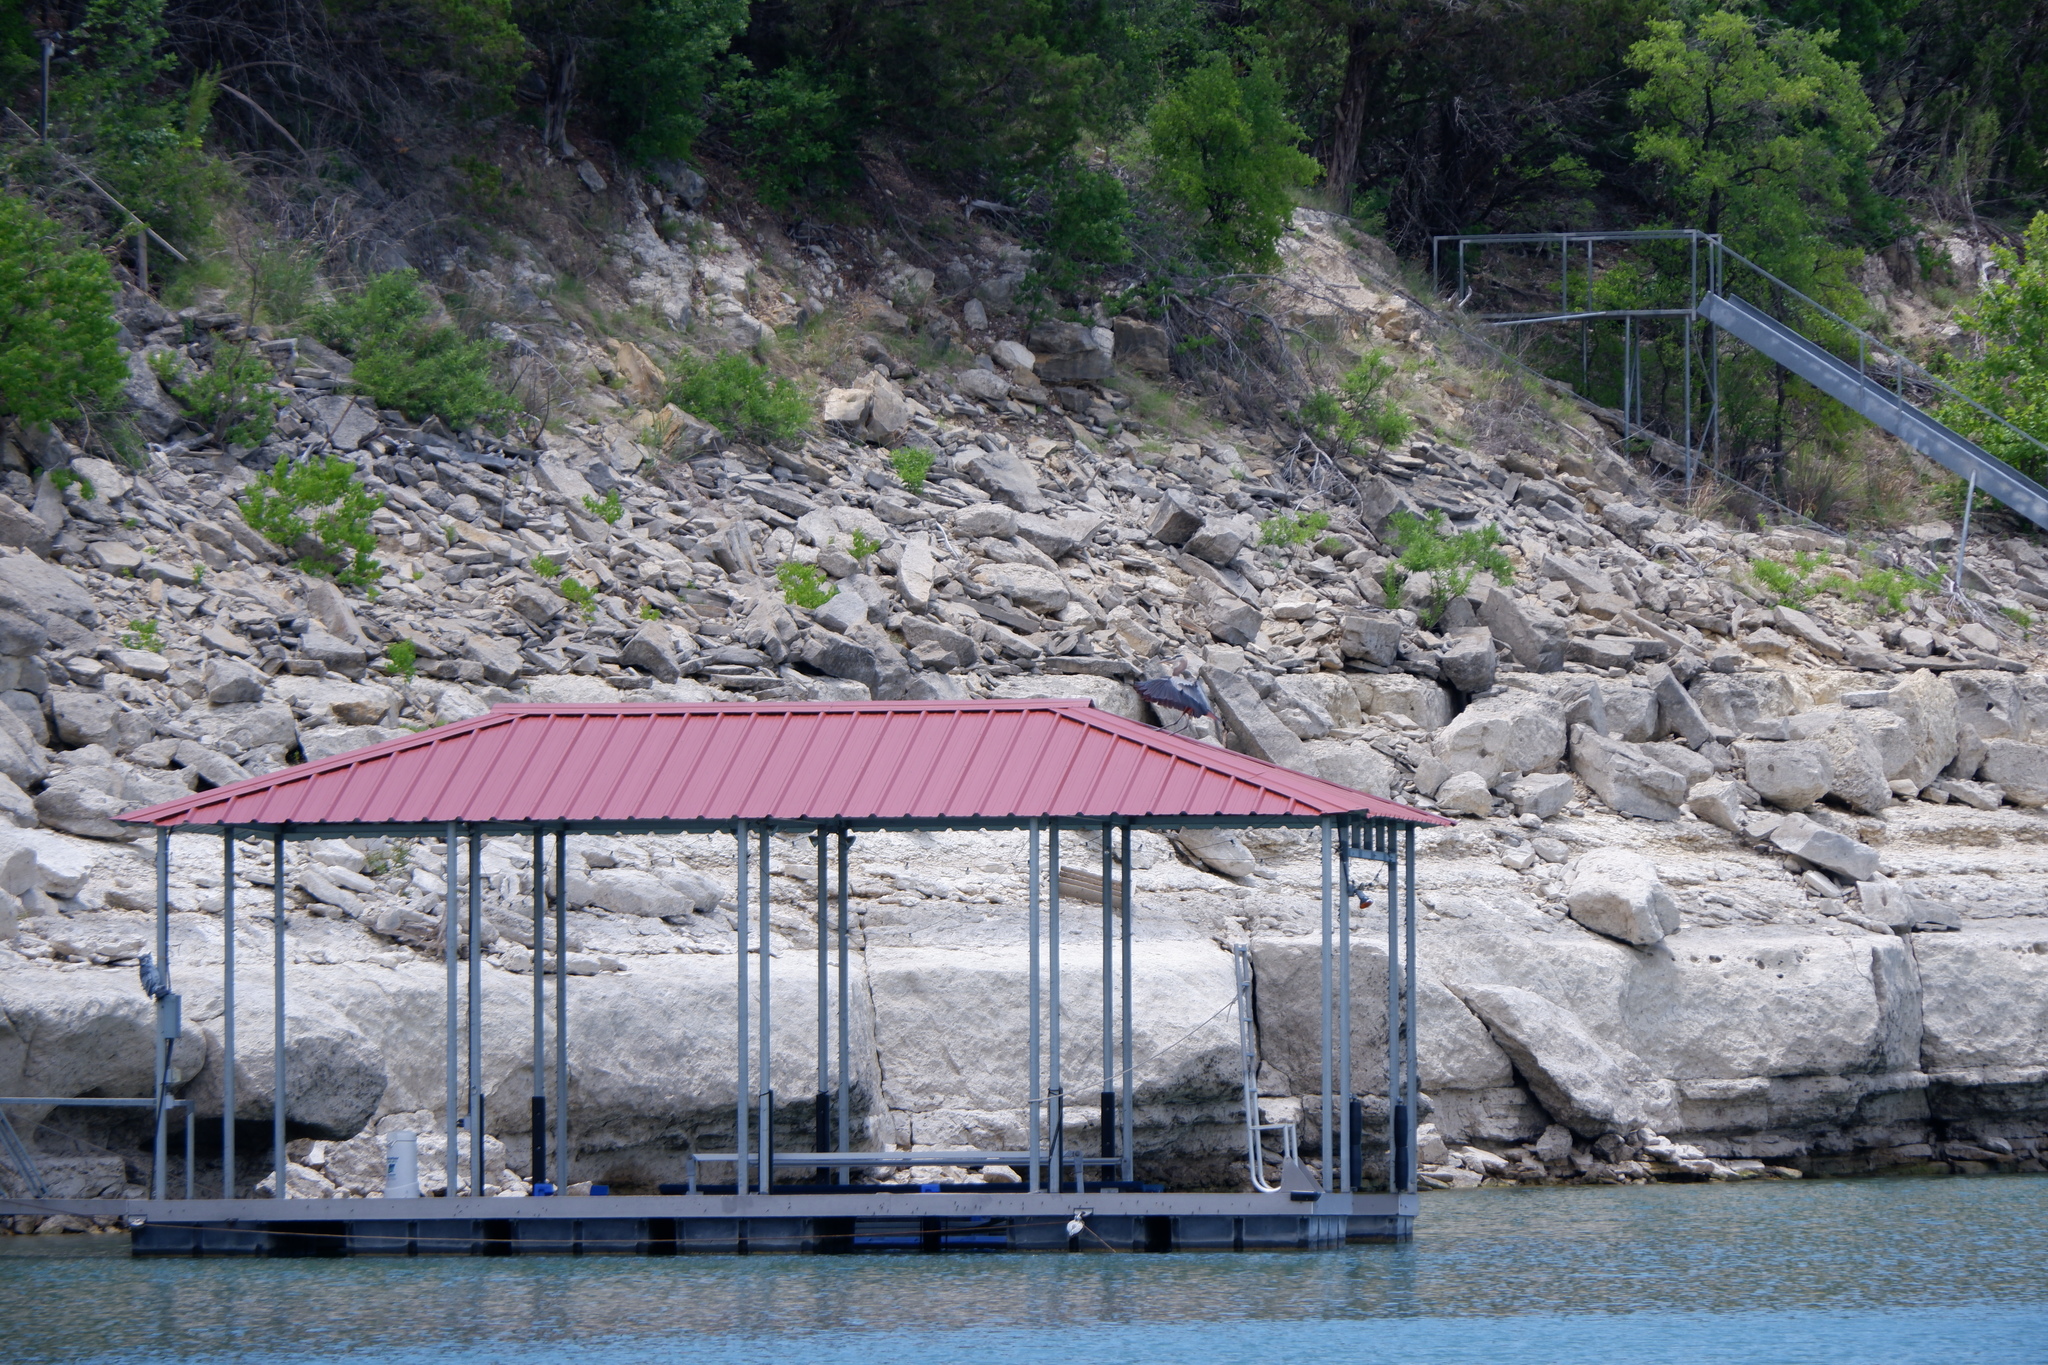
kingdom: Animalia
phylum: Chordata
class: Aves
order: Pelecaniformes
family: Ardeidae
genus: Ardea
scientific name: Ardea herodias
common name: Great blue heron
